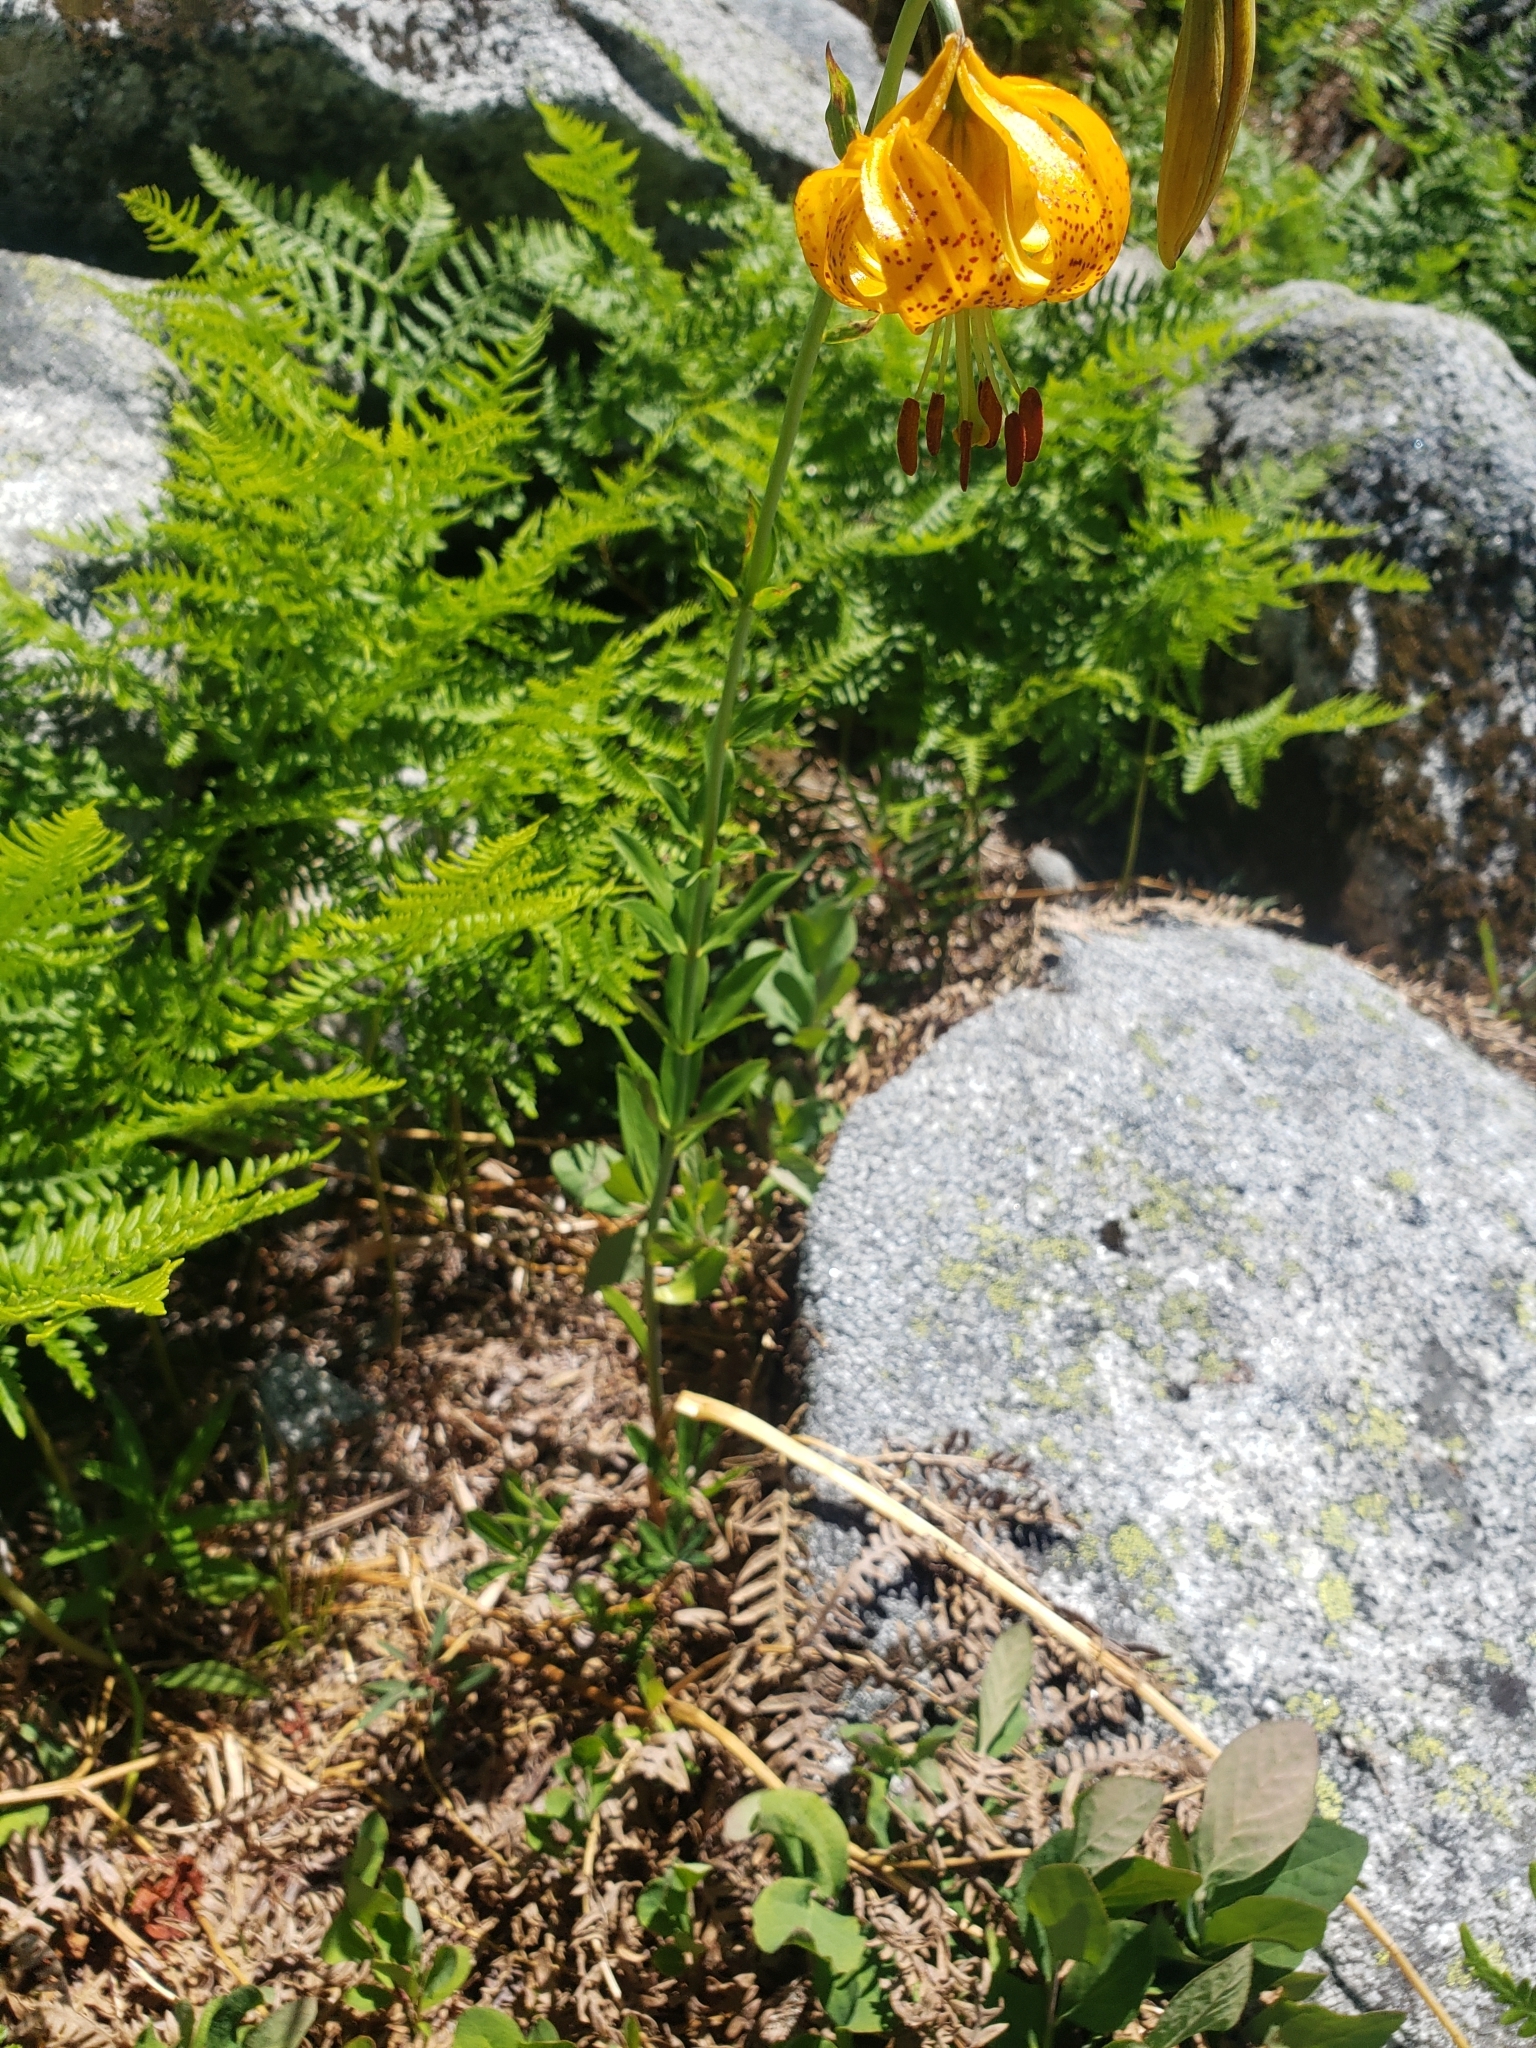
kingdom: Plantae
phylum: Tracheophyta
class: Liliopsida
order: Liliales
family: Liliaceae
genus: Lilium
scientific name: Lilium columbianum
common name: Columbia lily
